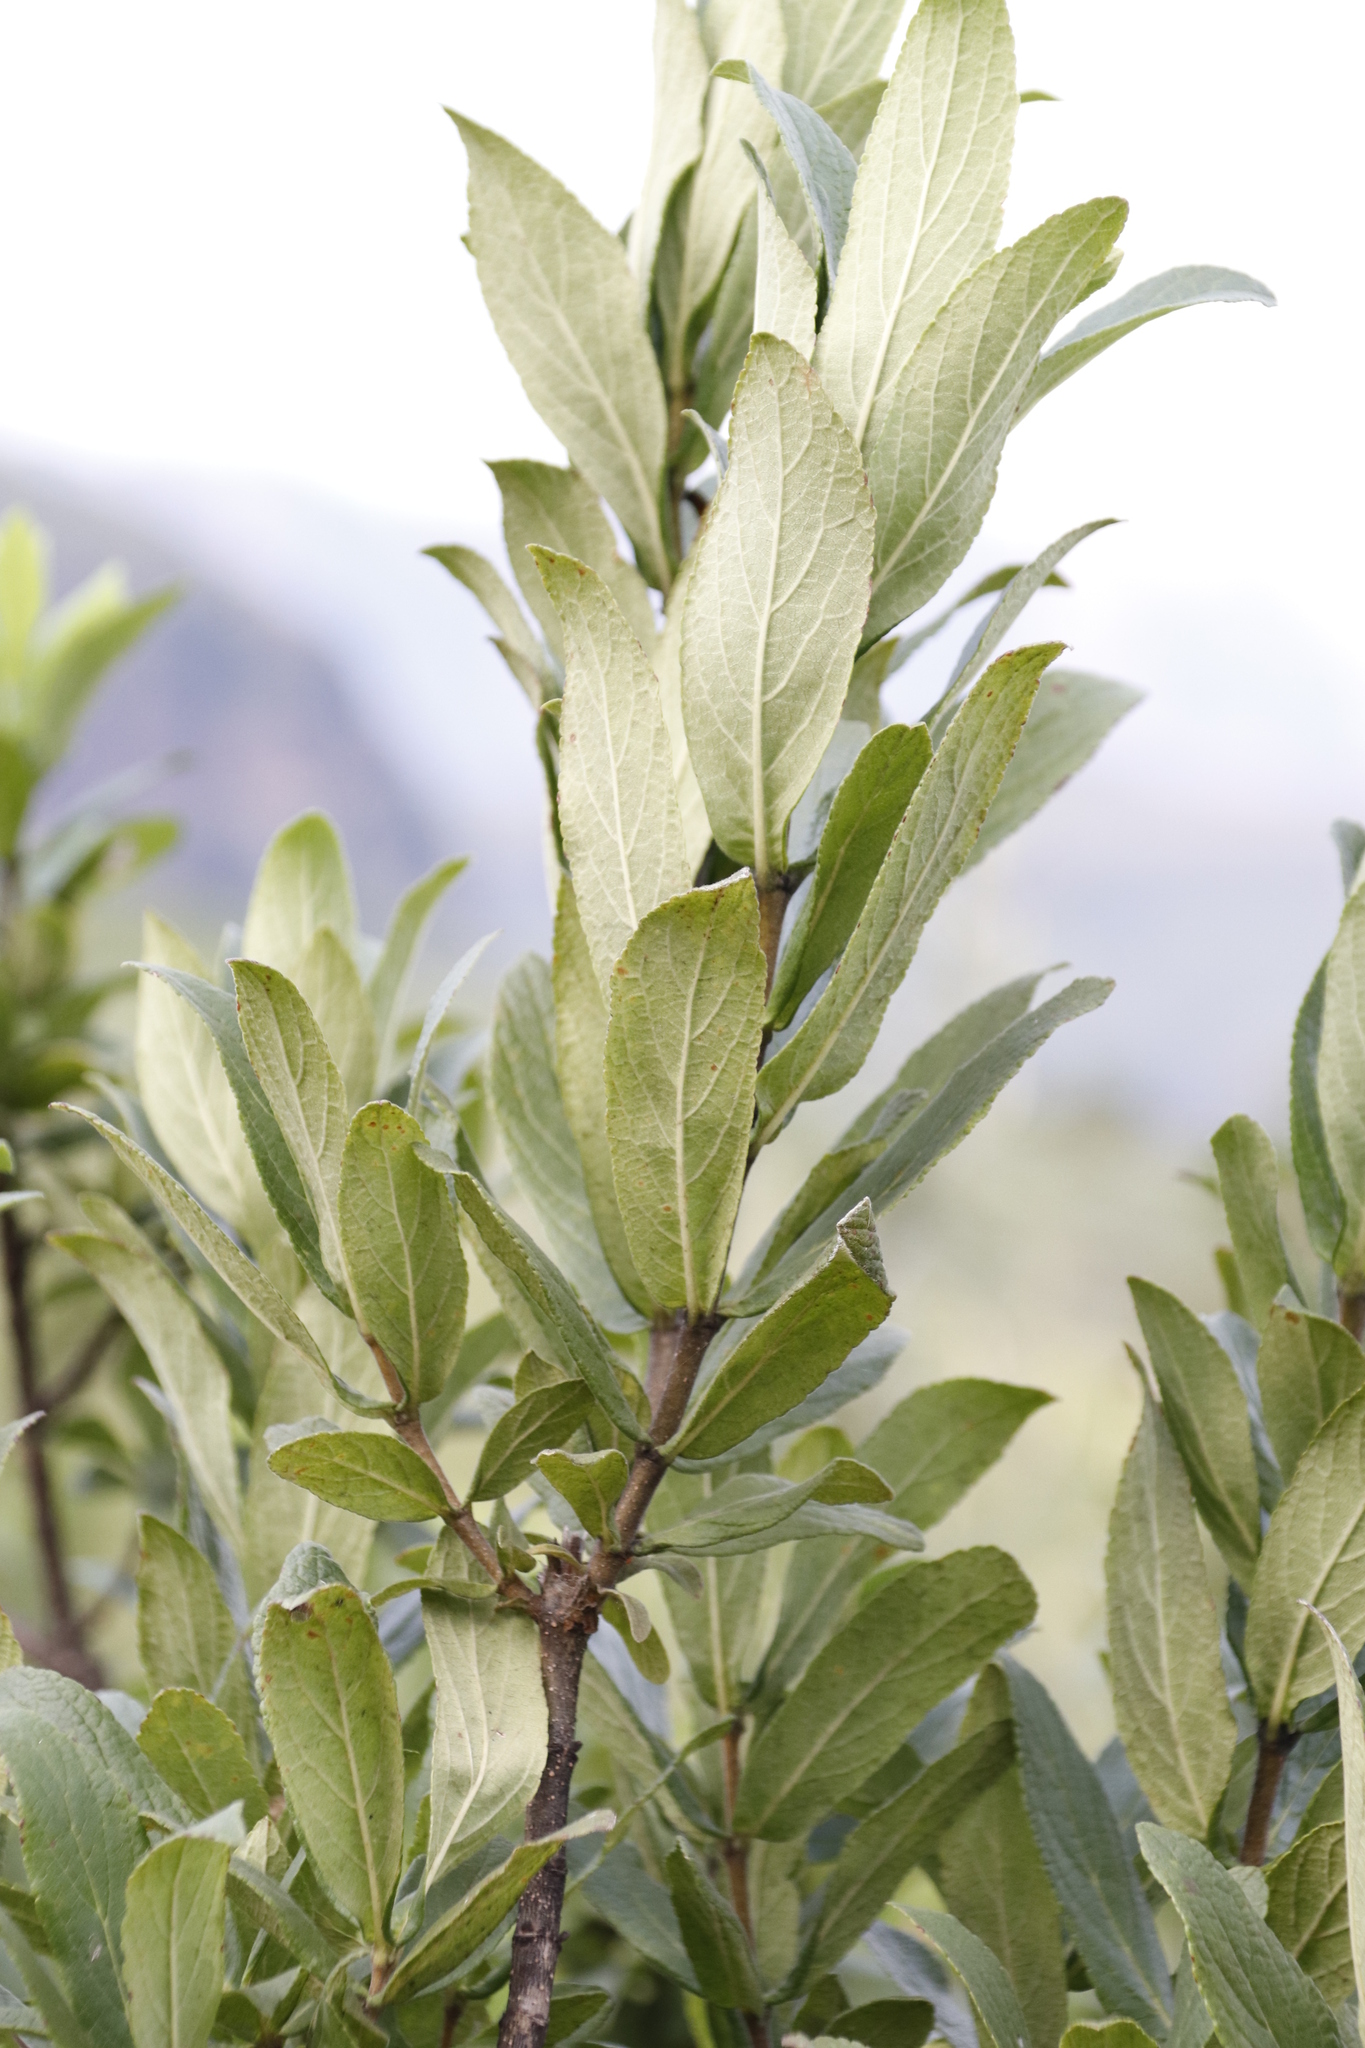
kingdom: Plantae
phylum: Tracheophyta
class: Magnoliopsida
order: Lamiales
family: Stilbaceae
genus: Bowkeria
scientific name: Bowkeria verticillata
